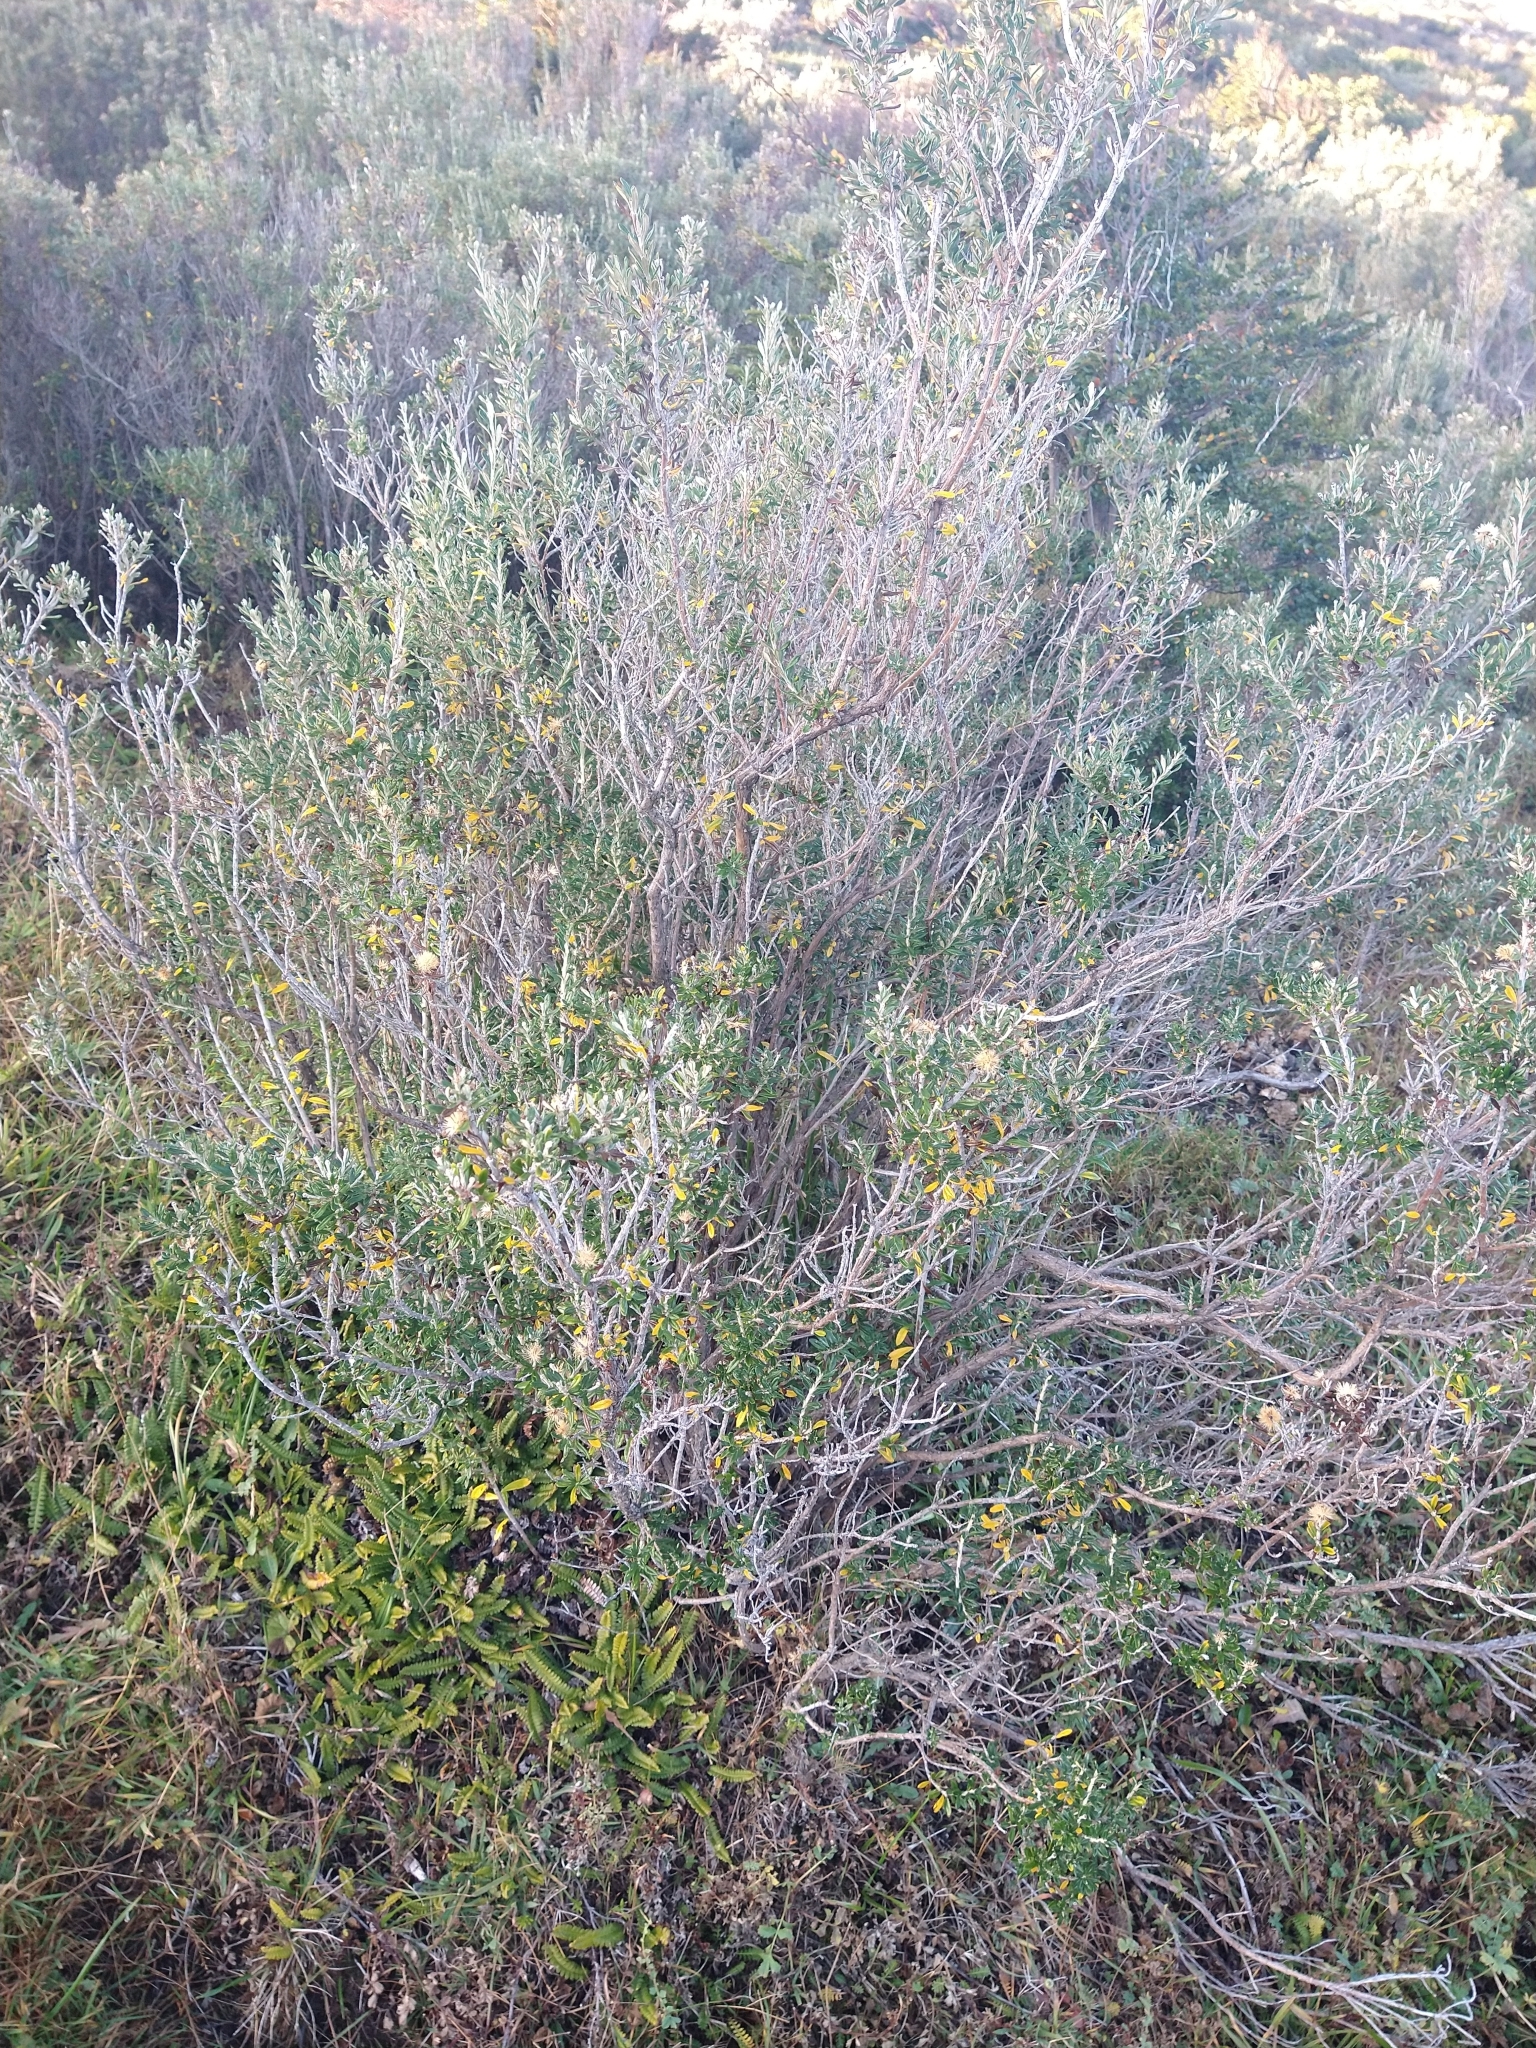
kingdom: Plantae
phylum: Tracheophyta
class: Magnoliopsida
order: Asterales
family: Asteraceae
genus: Chiliotrichum
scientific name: Chiliotrichum diffusum
